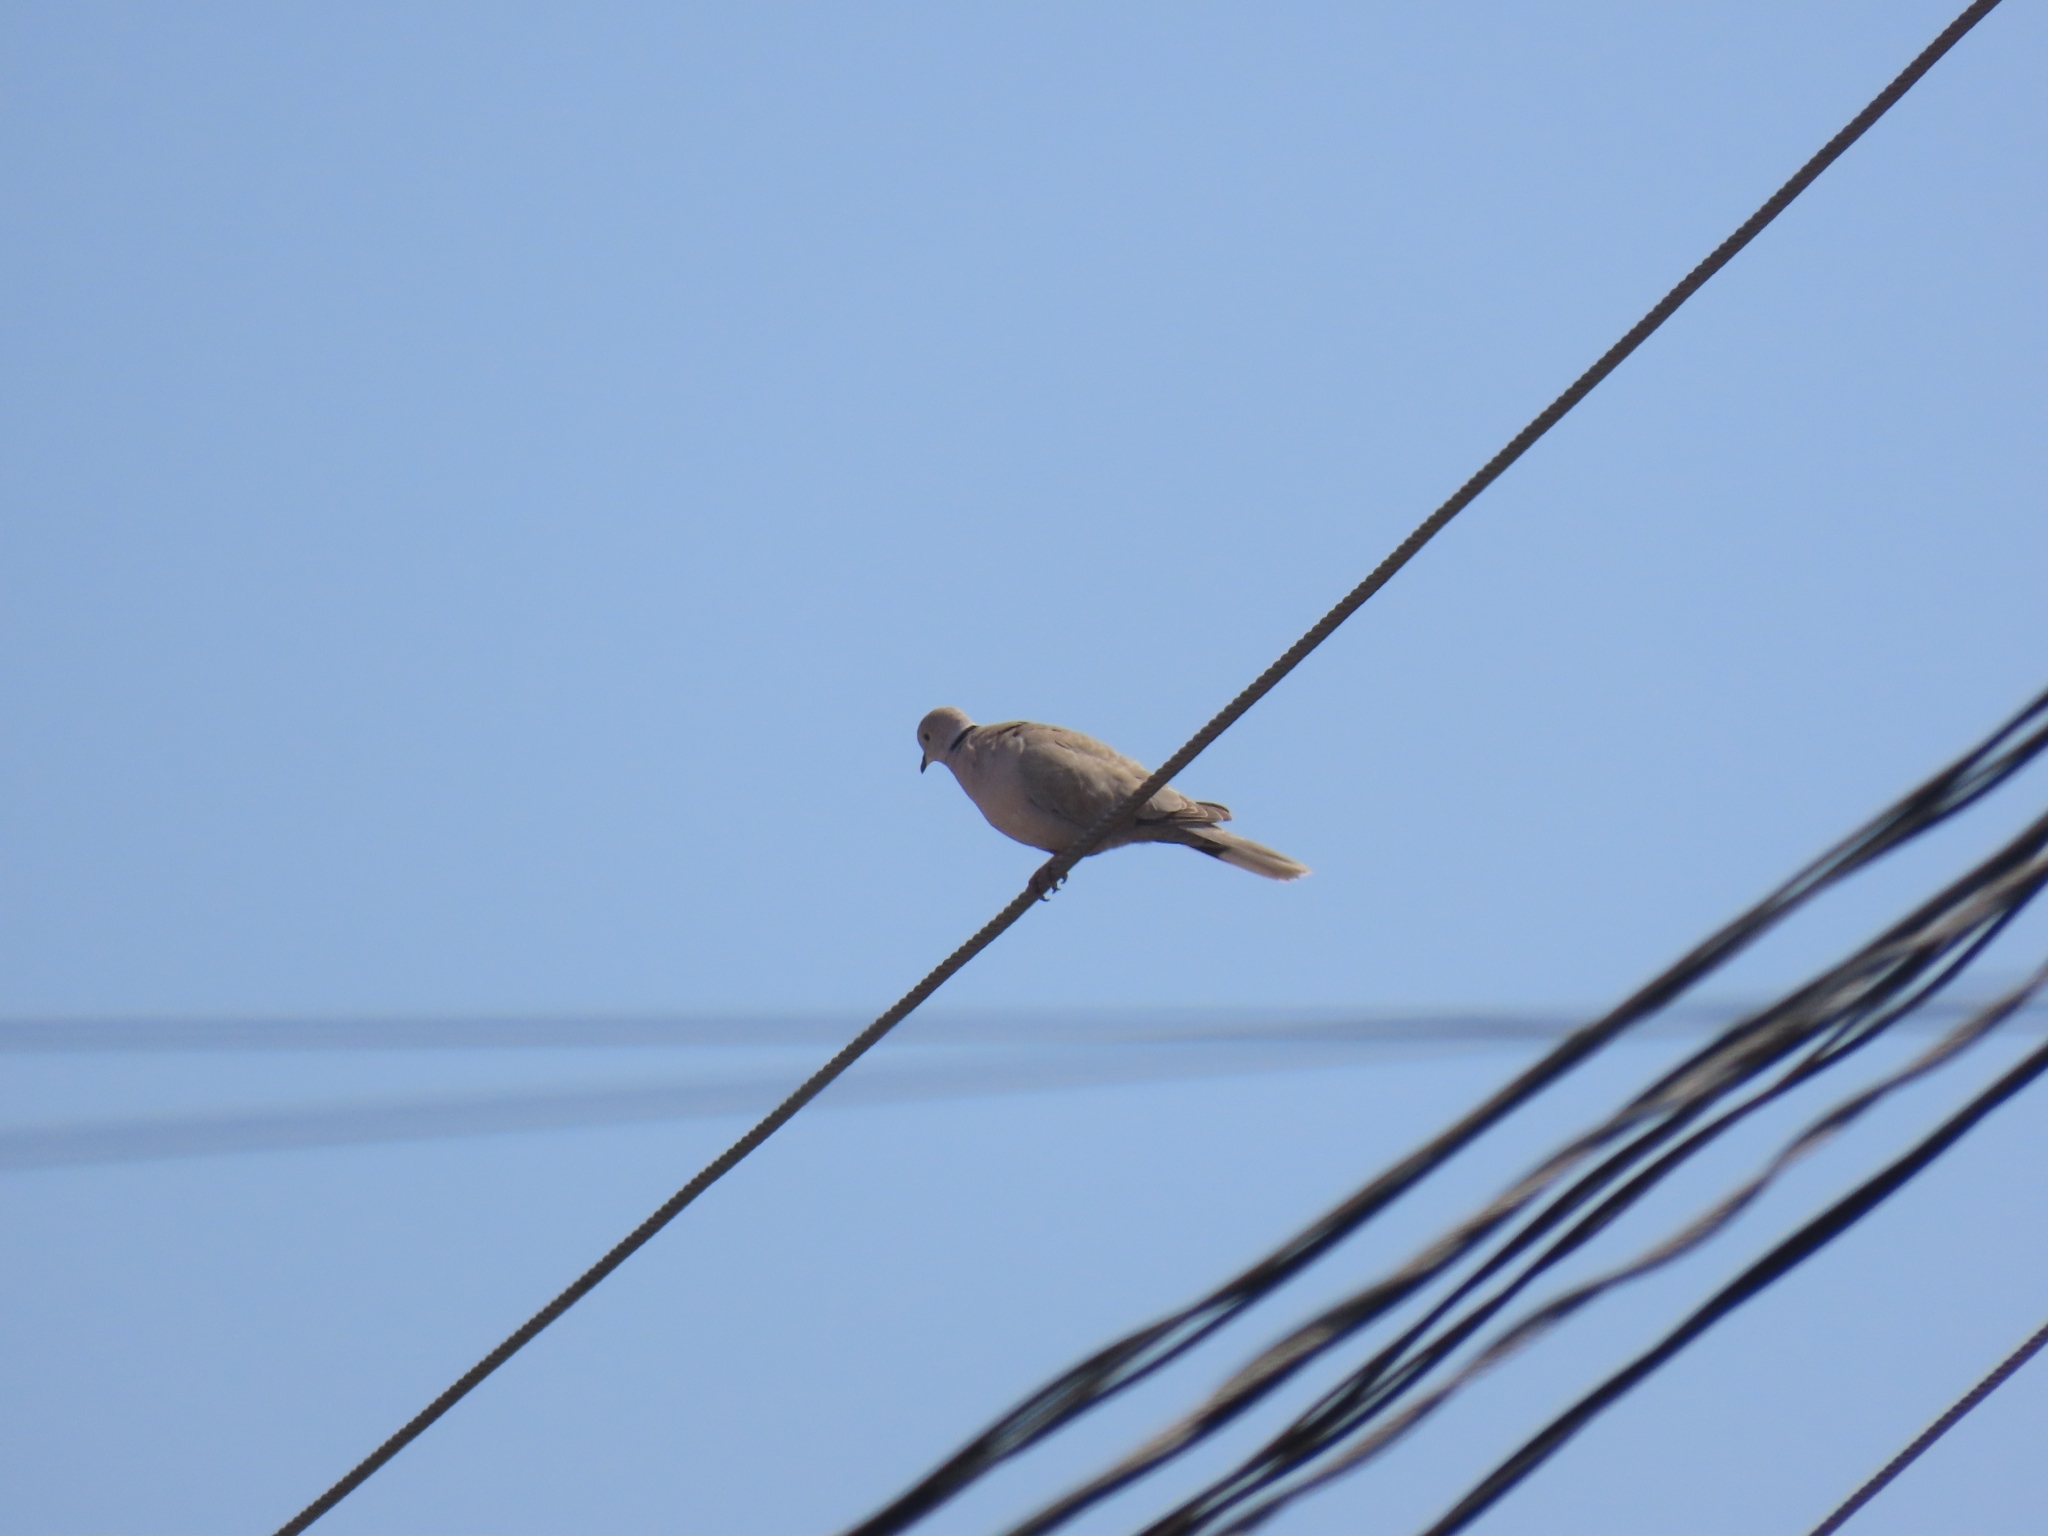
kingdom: Animalia
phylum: Chordata
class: Aves
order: Columbiformes
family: Columbidae
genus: Streptopelia
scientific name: Streptopelia decaocto
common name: Eurasian collared dove
